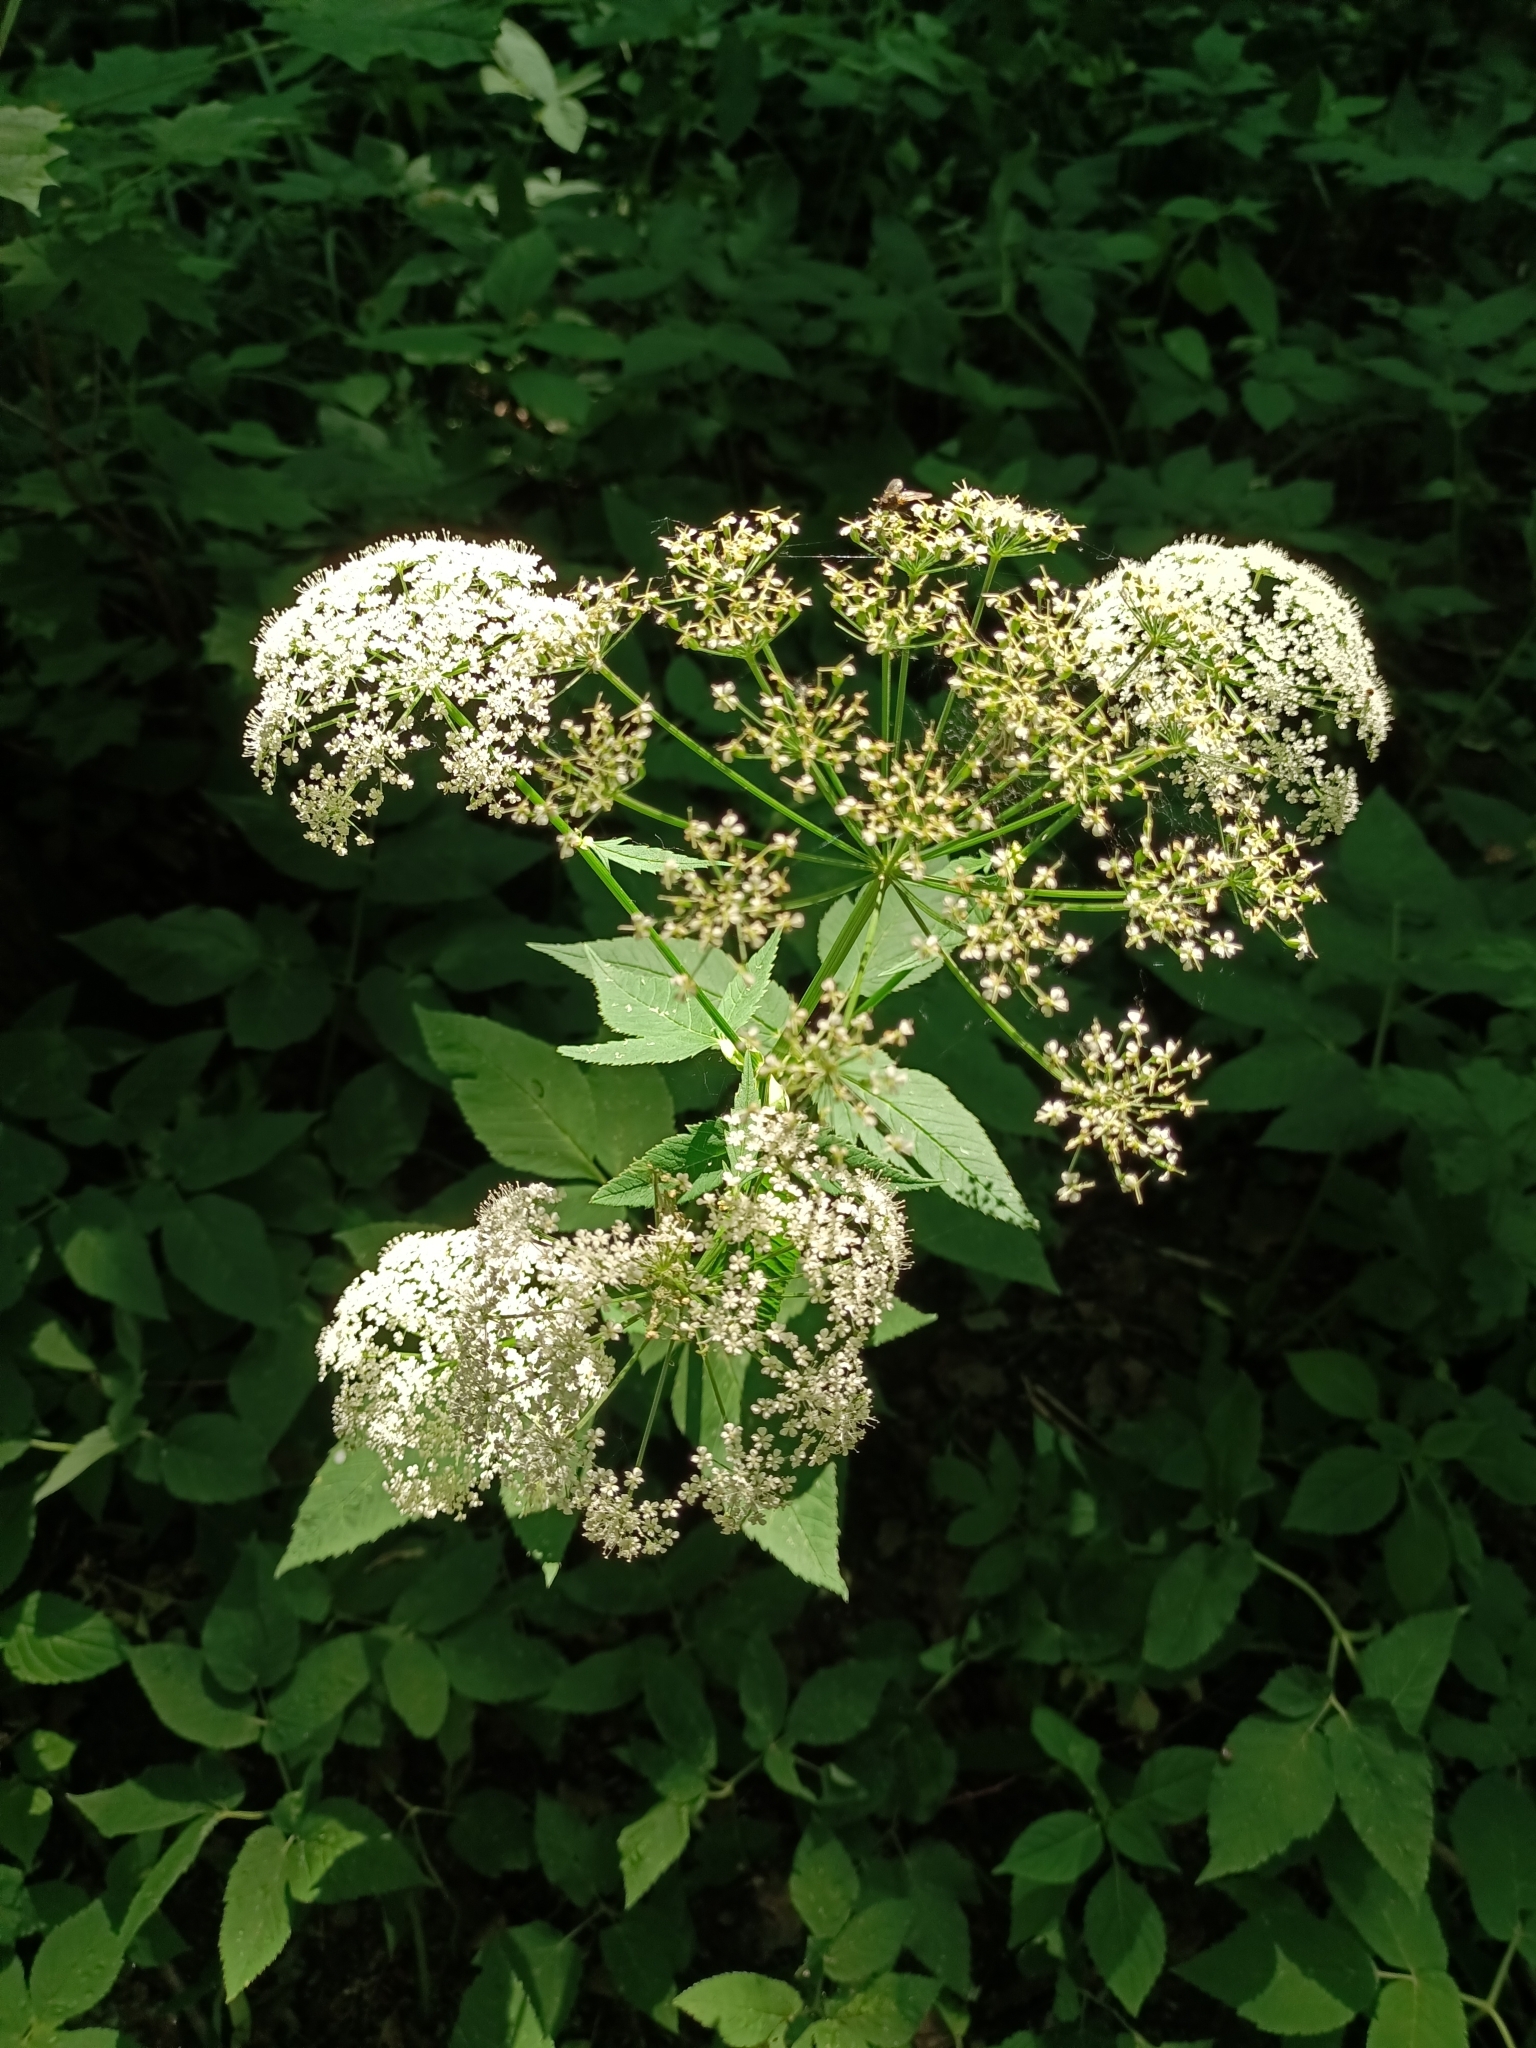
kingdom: Plantae
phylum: Tracheophyta
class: Magnoliopsida
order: Apiales
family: Apiaceae
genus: Aegopodium
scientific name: Aegopodium podagraria
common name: Ground-elder
